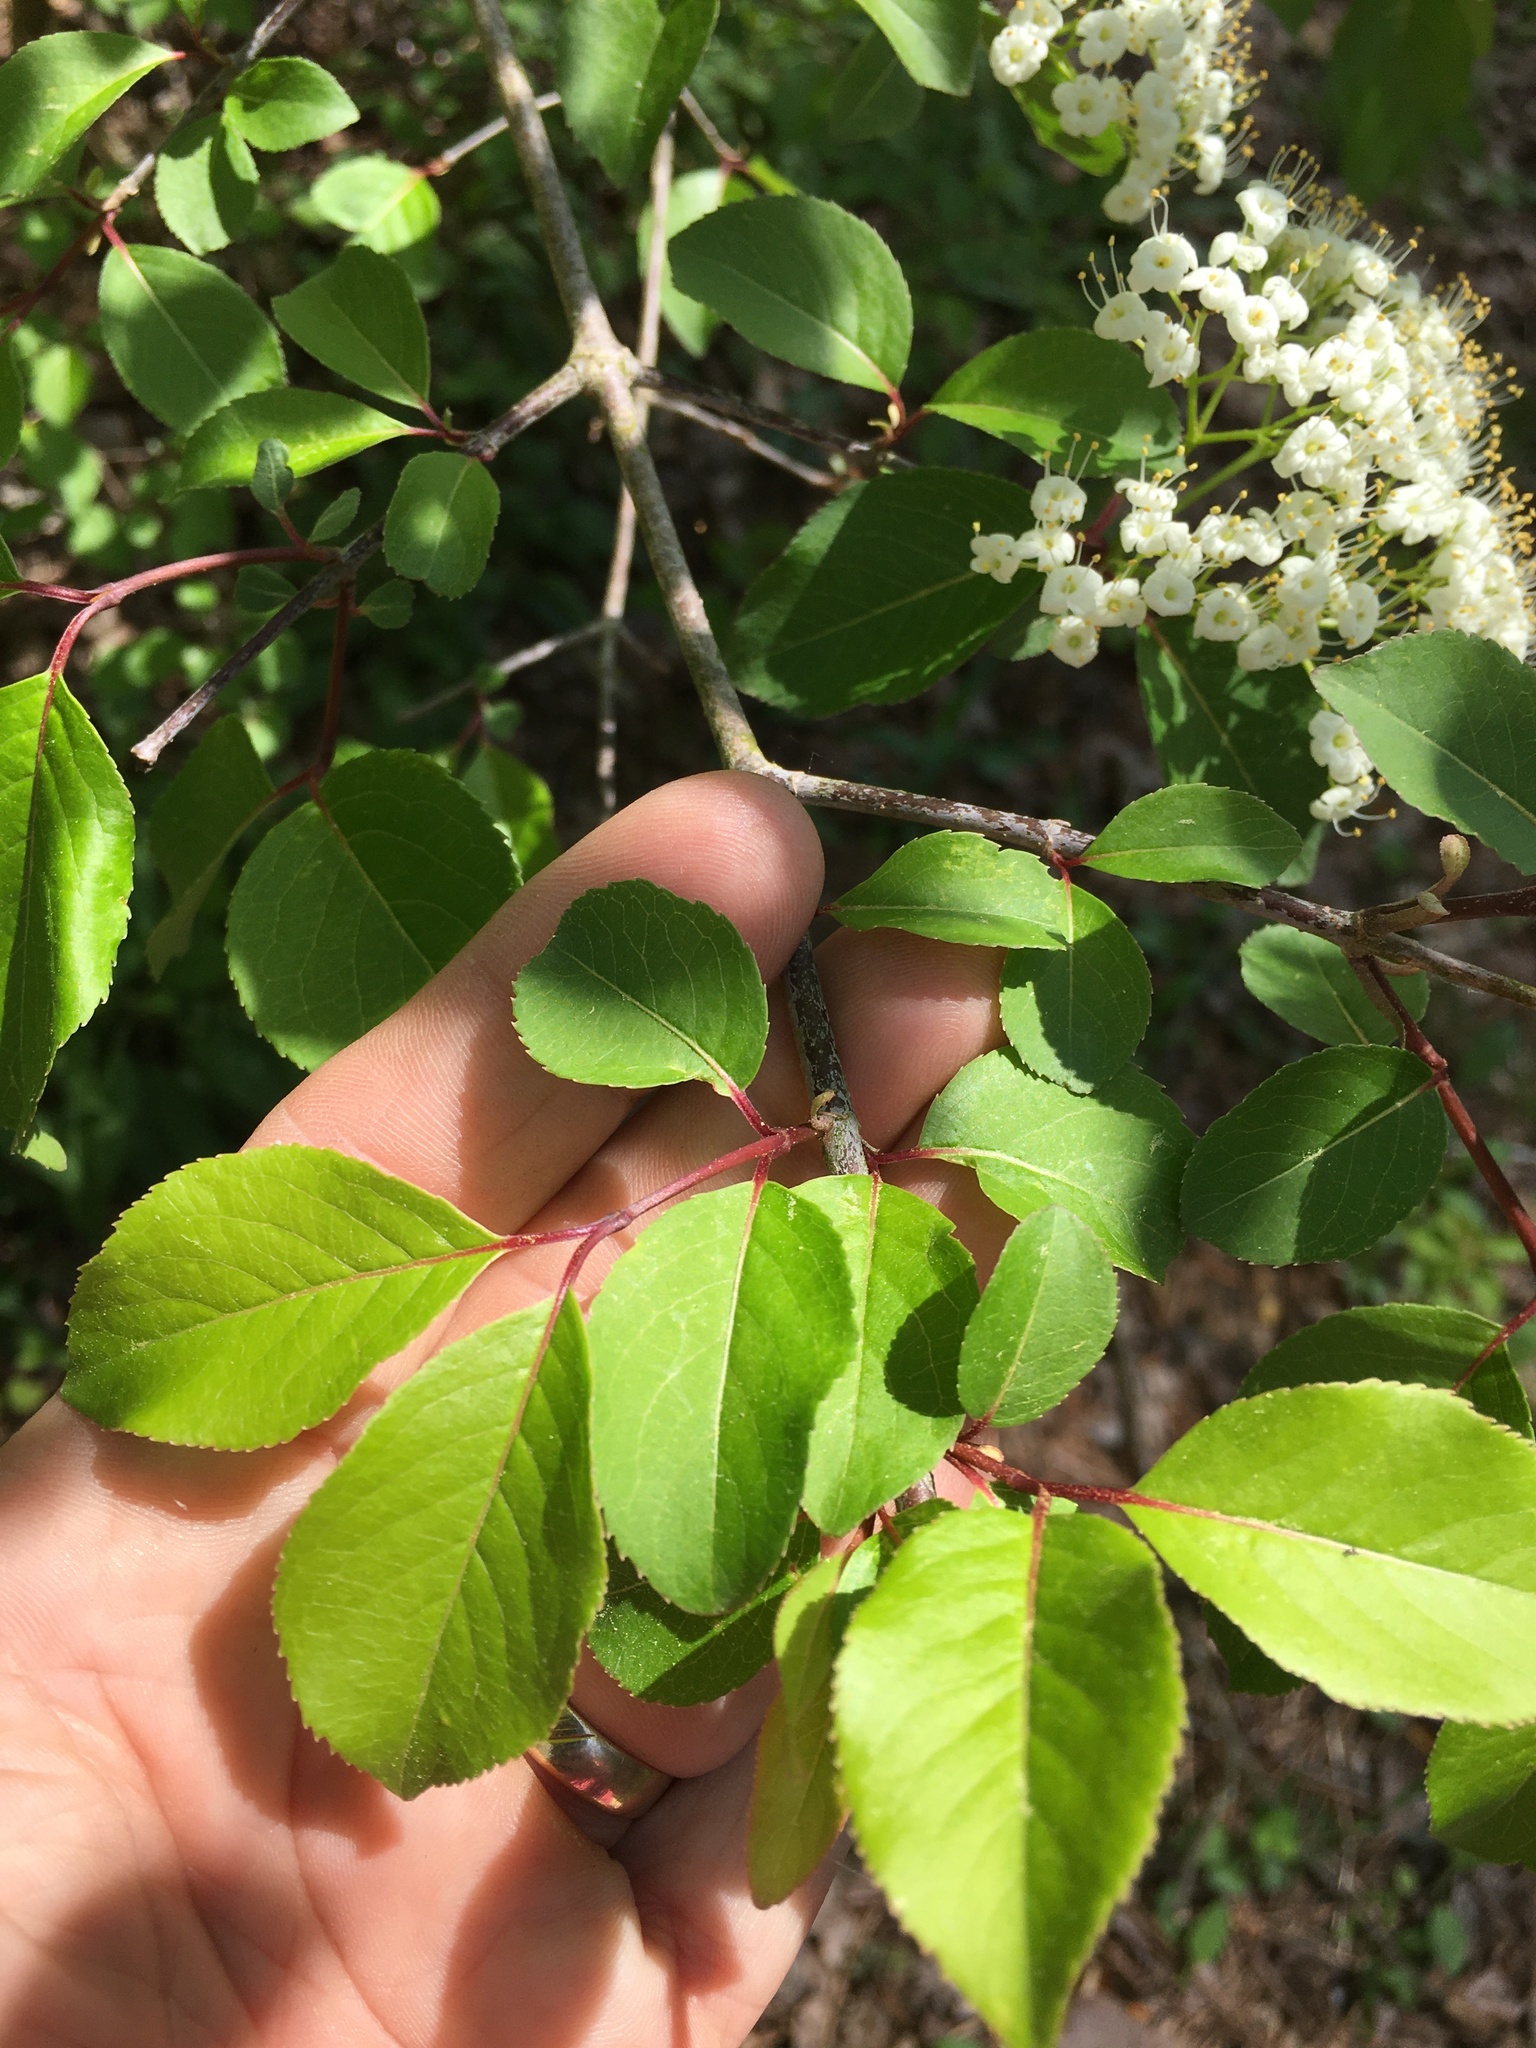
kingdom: Plantae
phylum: Tracheophyta
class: Magnoliopsida
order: Dipsacales
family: Viburnaceae
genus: Viburnum
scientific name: Viburnum prunifolium
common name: Black haw
